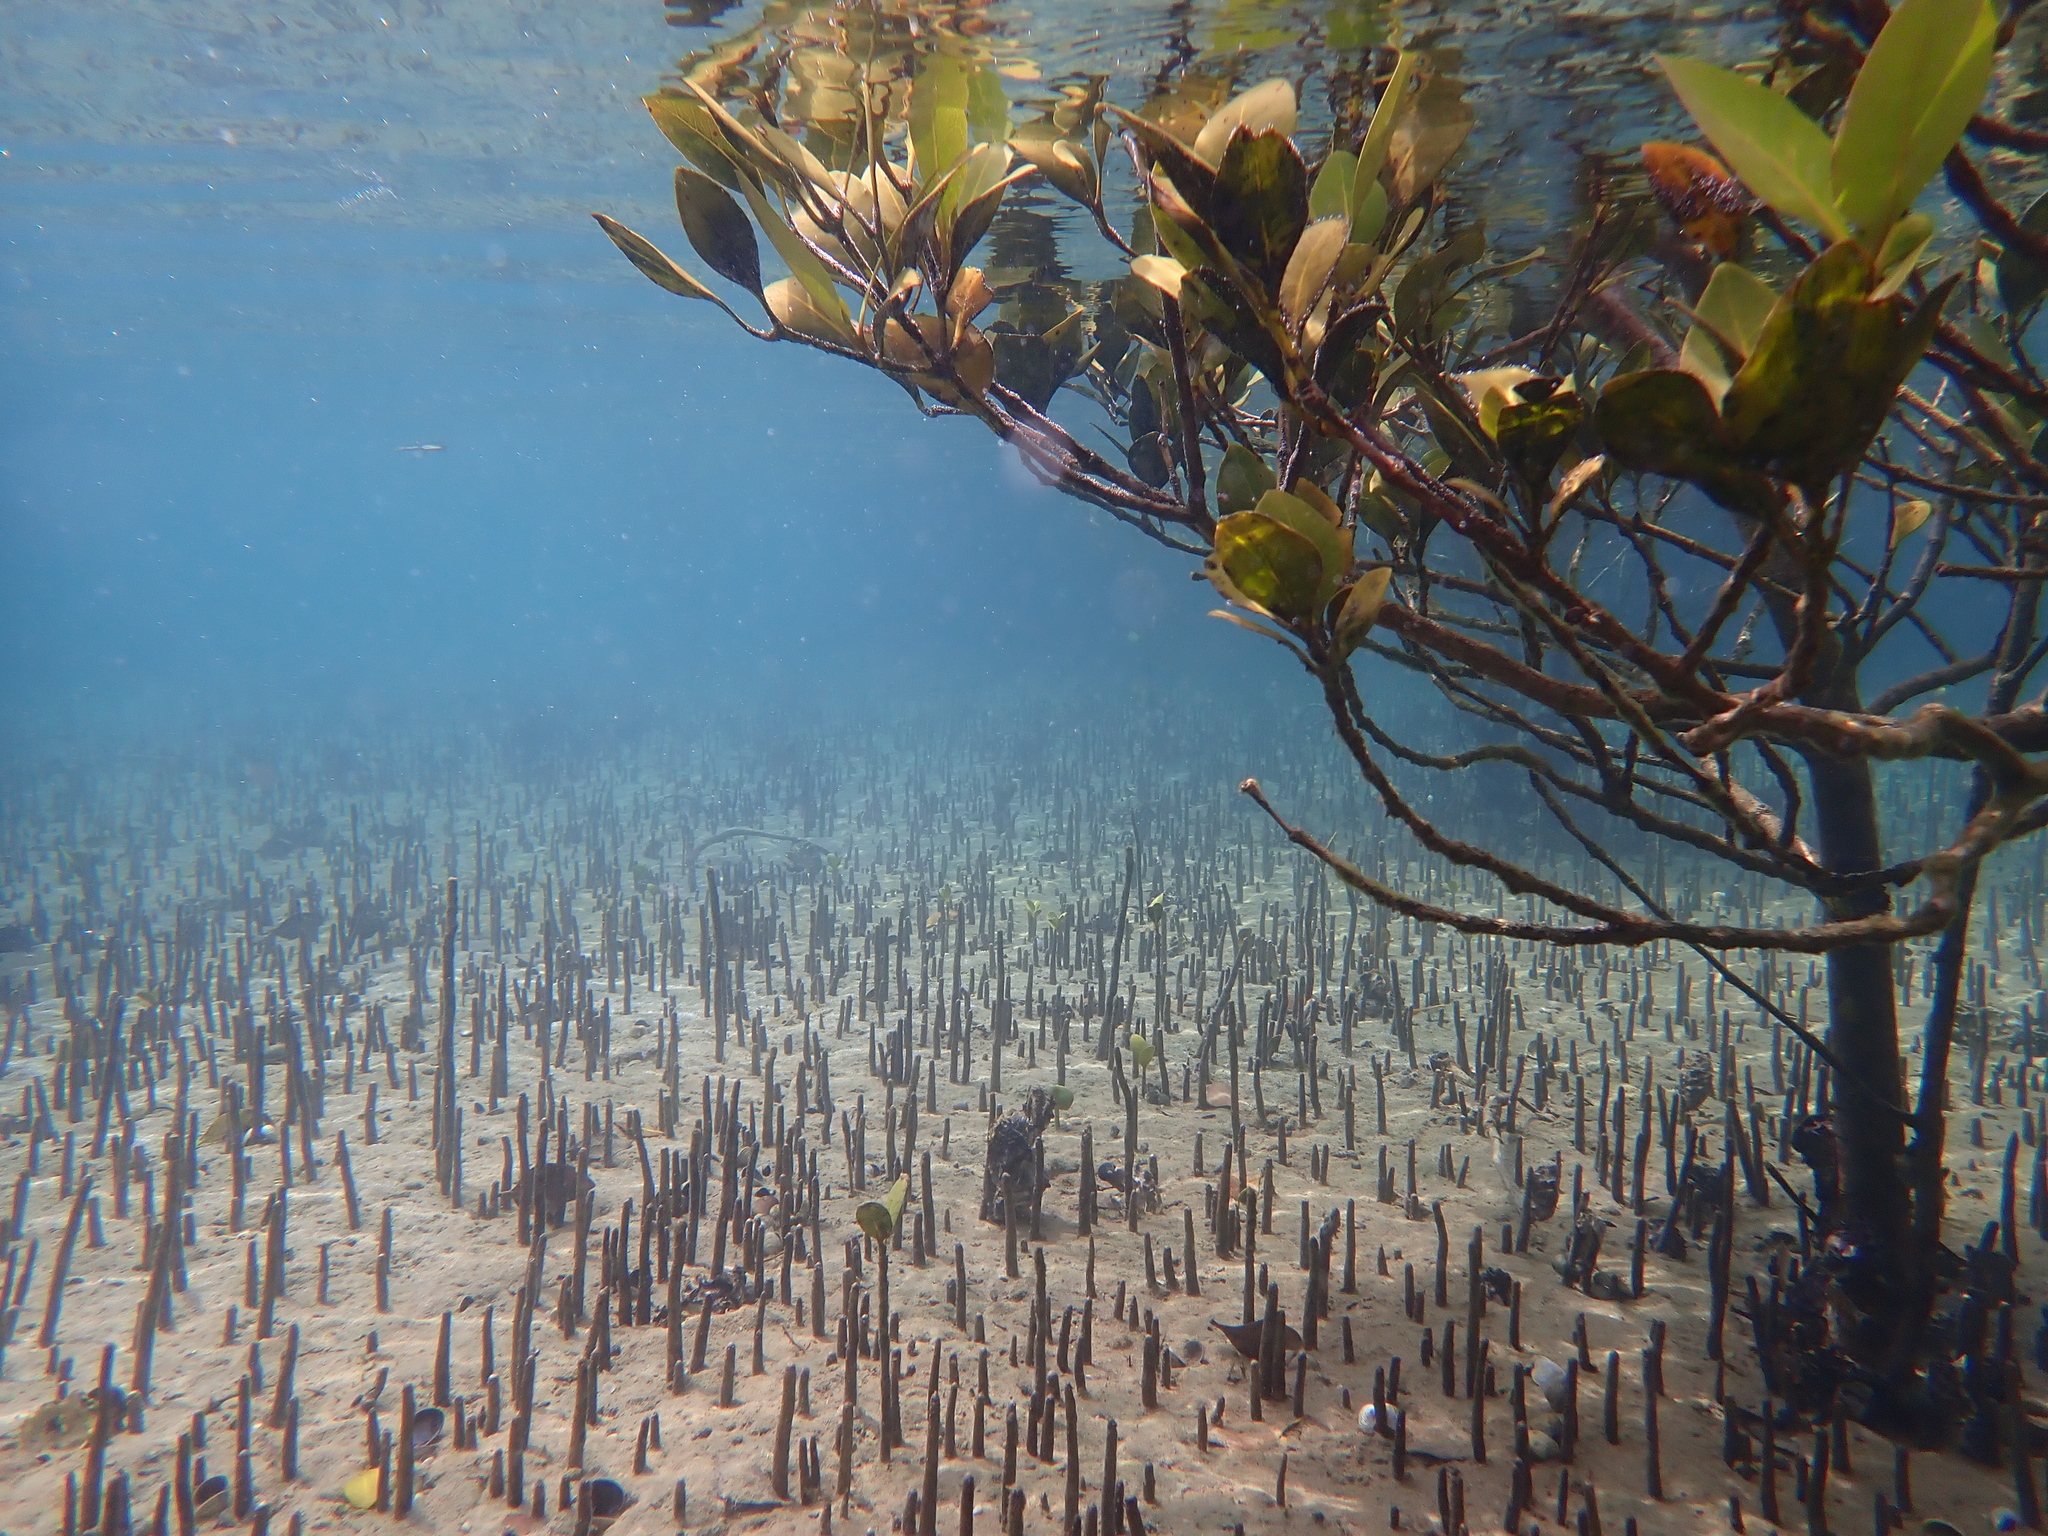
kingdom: Plantae
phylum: Tracheophyta
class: Magnoliopsida
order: Lamiales
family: Acanthaceae
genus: Avicennia
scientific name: Avicennia marina
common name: Gray mangrove
